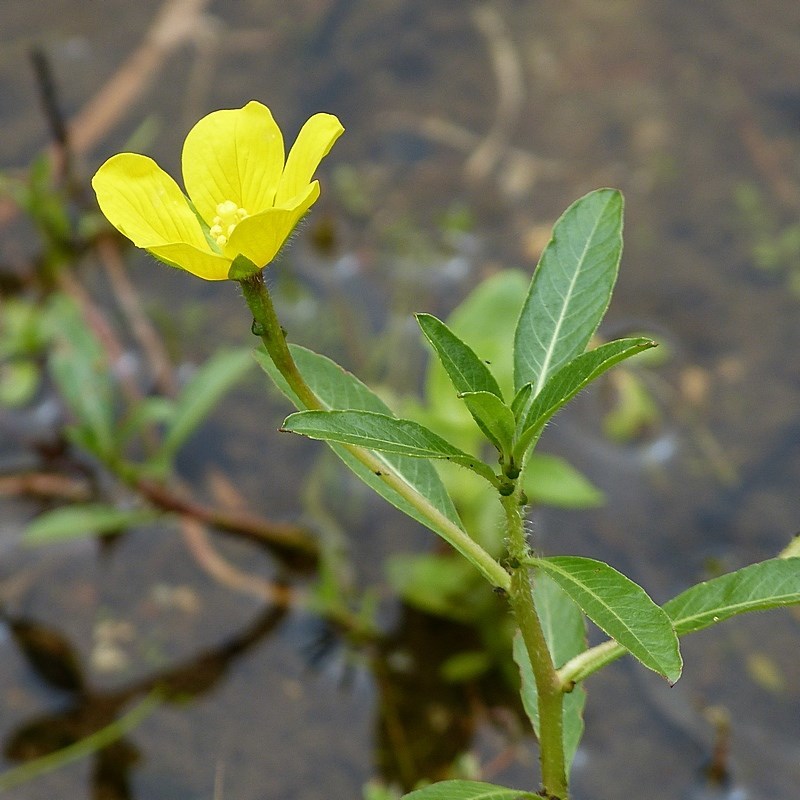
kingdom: Plantae
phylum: Tracheophyta
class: Magnoliopsida
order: Myrtales
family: Onagraceae
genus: Ludwigia
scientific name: Ludwigia peploides
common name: Floating primrose-willow
